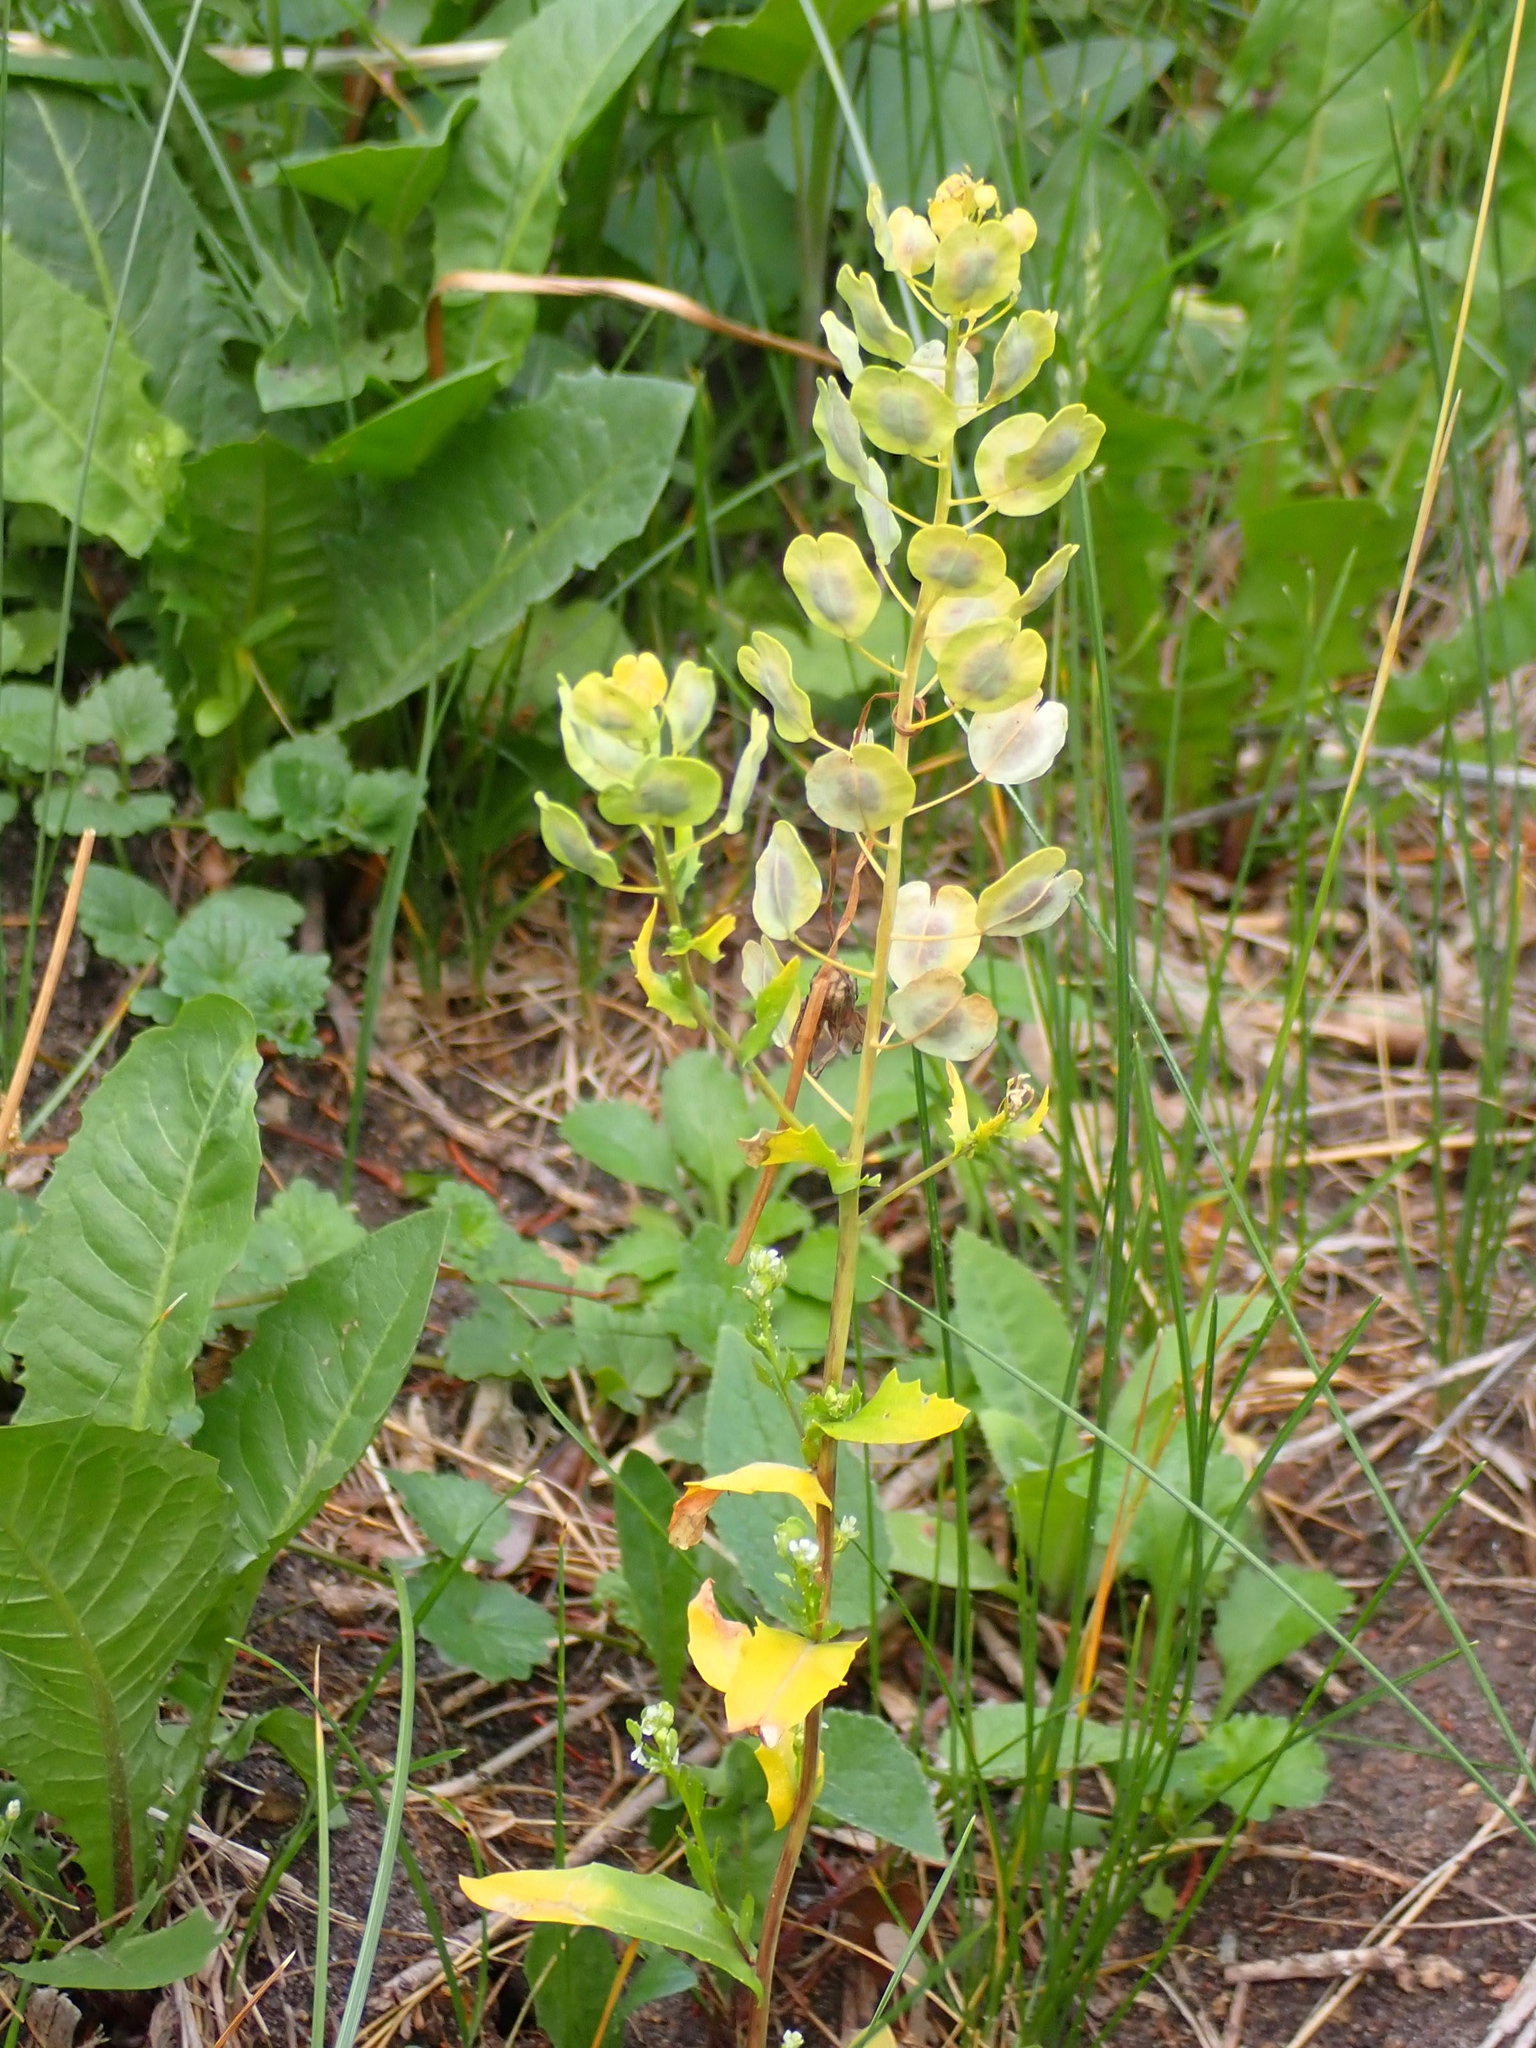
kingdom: Plantae
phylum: Tracheophyta
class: Magnoliopsida
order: Brassicales
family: Brassicaceae
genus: Thlaspi
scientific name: Thlaspi arvense
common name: Field pennycress
